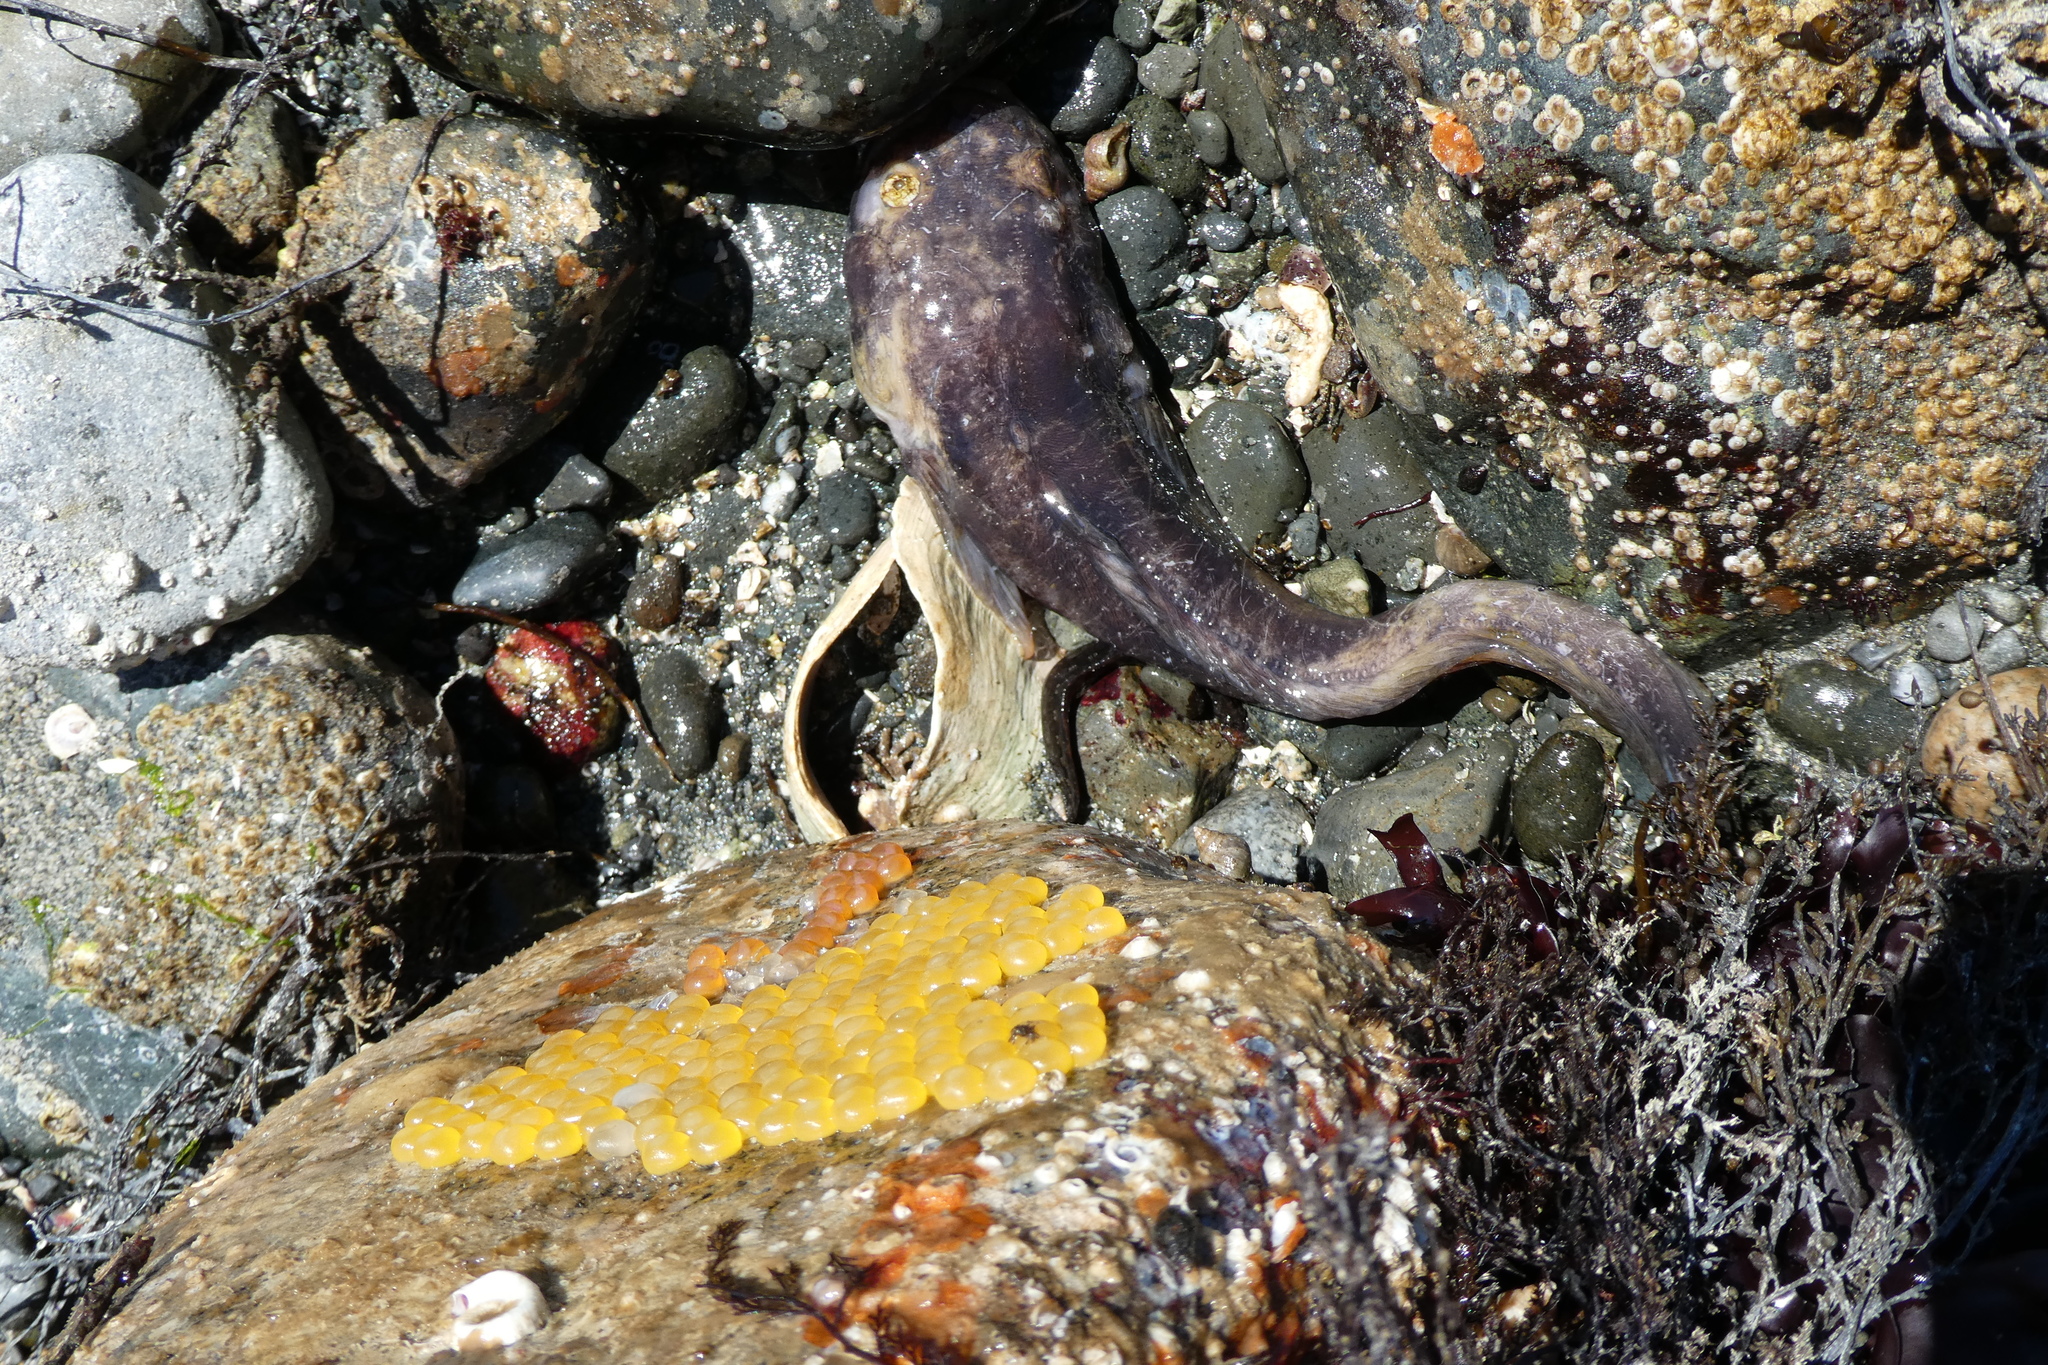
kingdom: Animalia
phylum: Chordata
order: Batrachoidiformes
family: Batrachoididae
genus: Porichthys
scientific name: Porichthys notatus
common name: Plainfin midshipman
